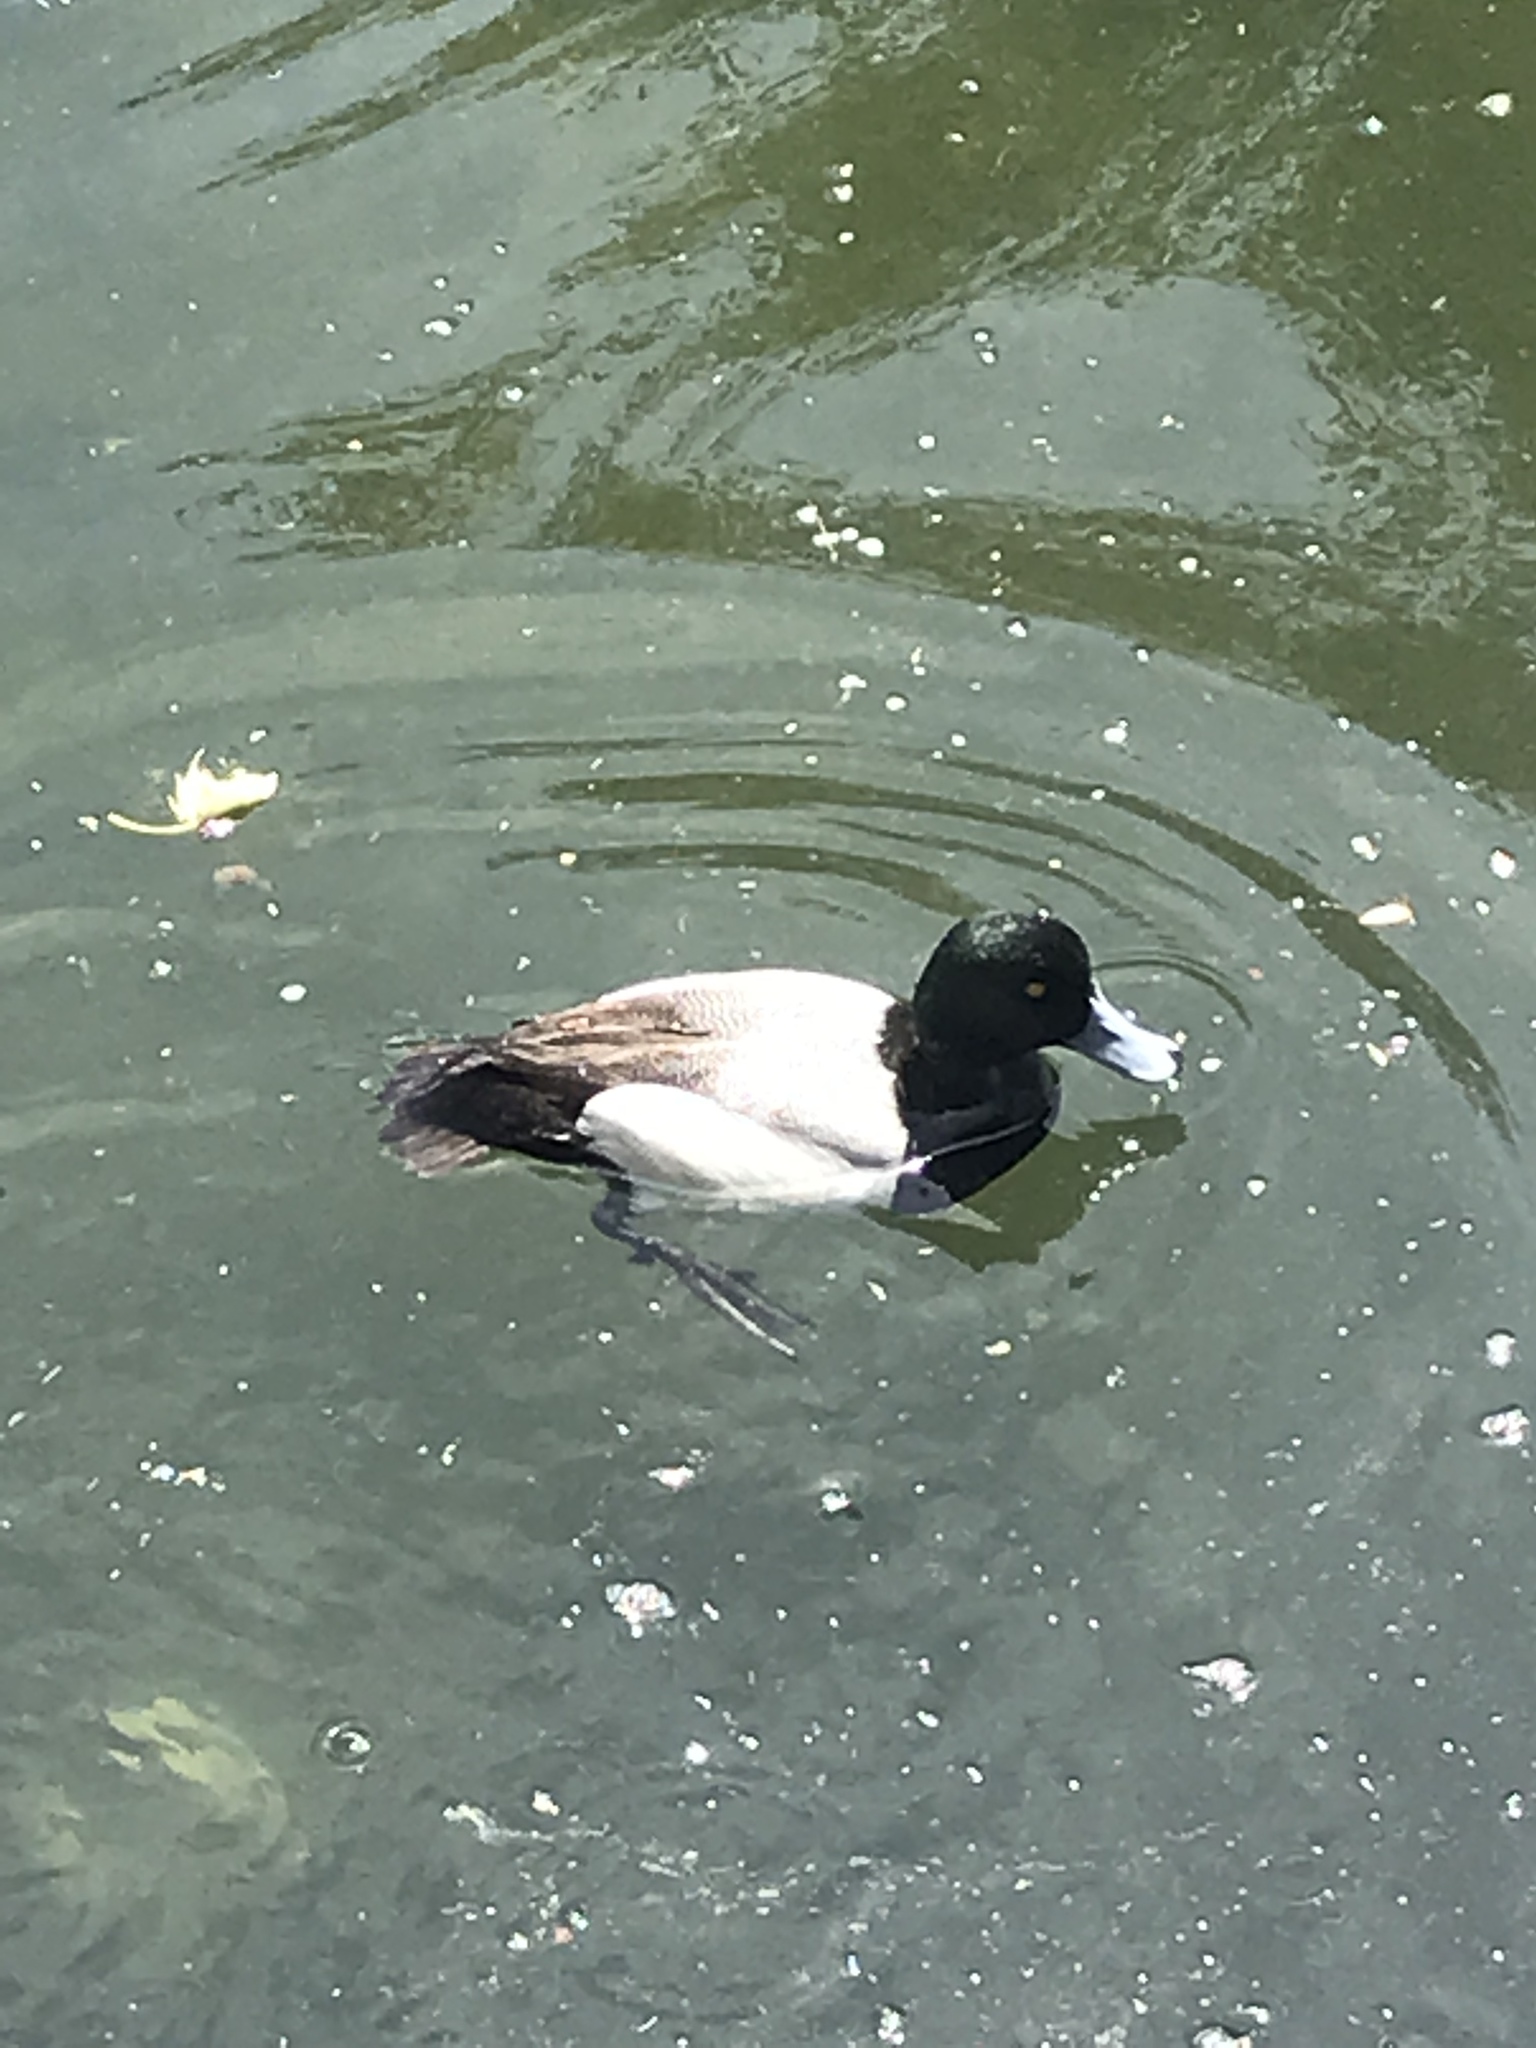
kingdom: Animalia
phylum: Chordata
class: Aves
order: Anseriformes
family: Anatidae
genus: Aythya
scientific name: Aythya marila
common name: Greater scaup
